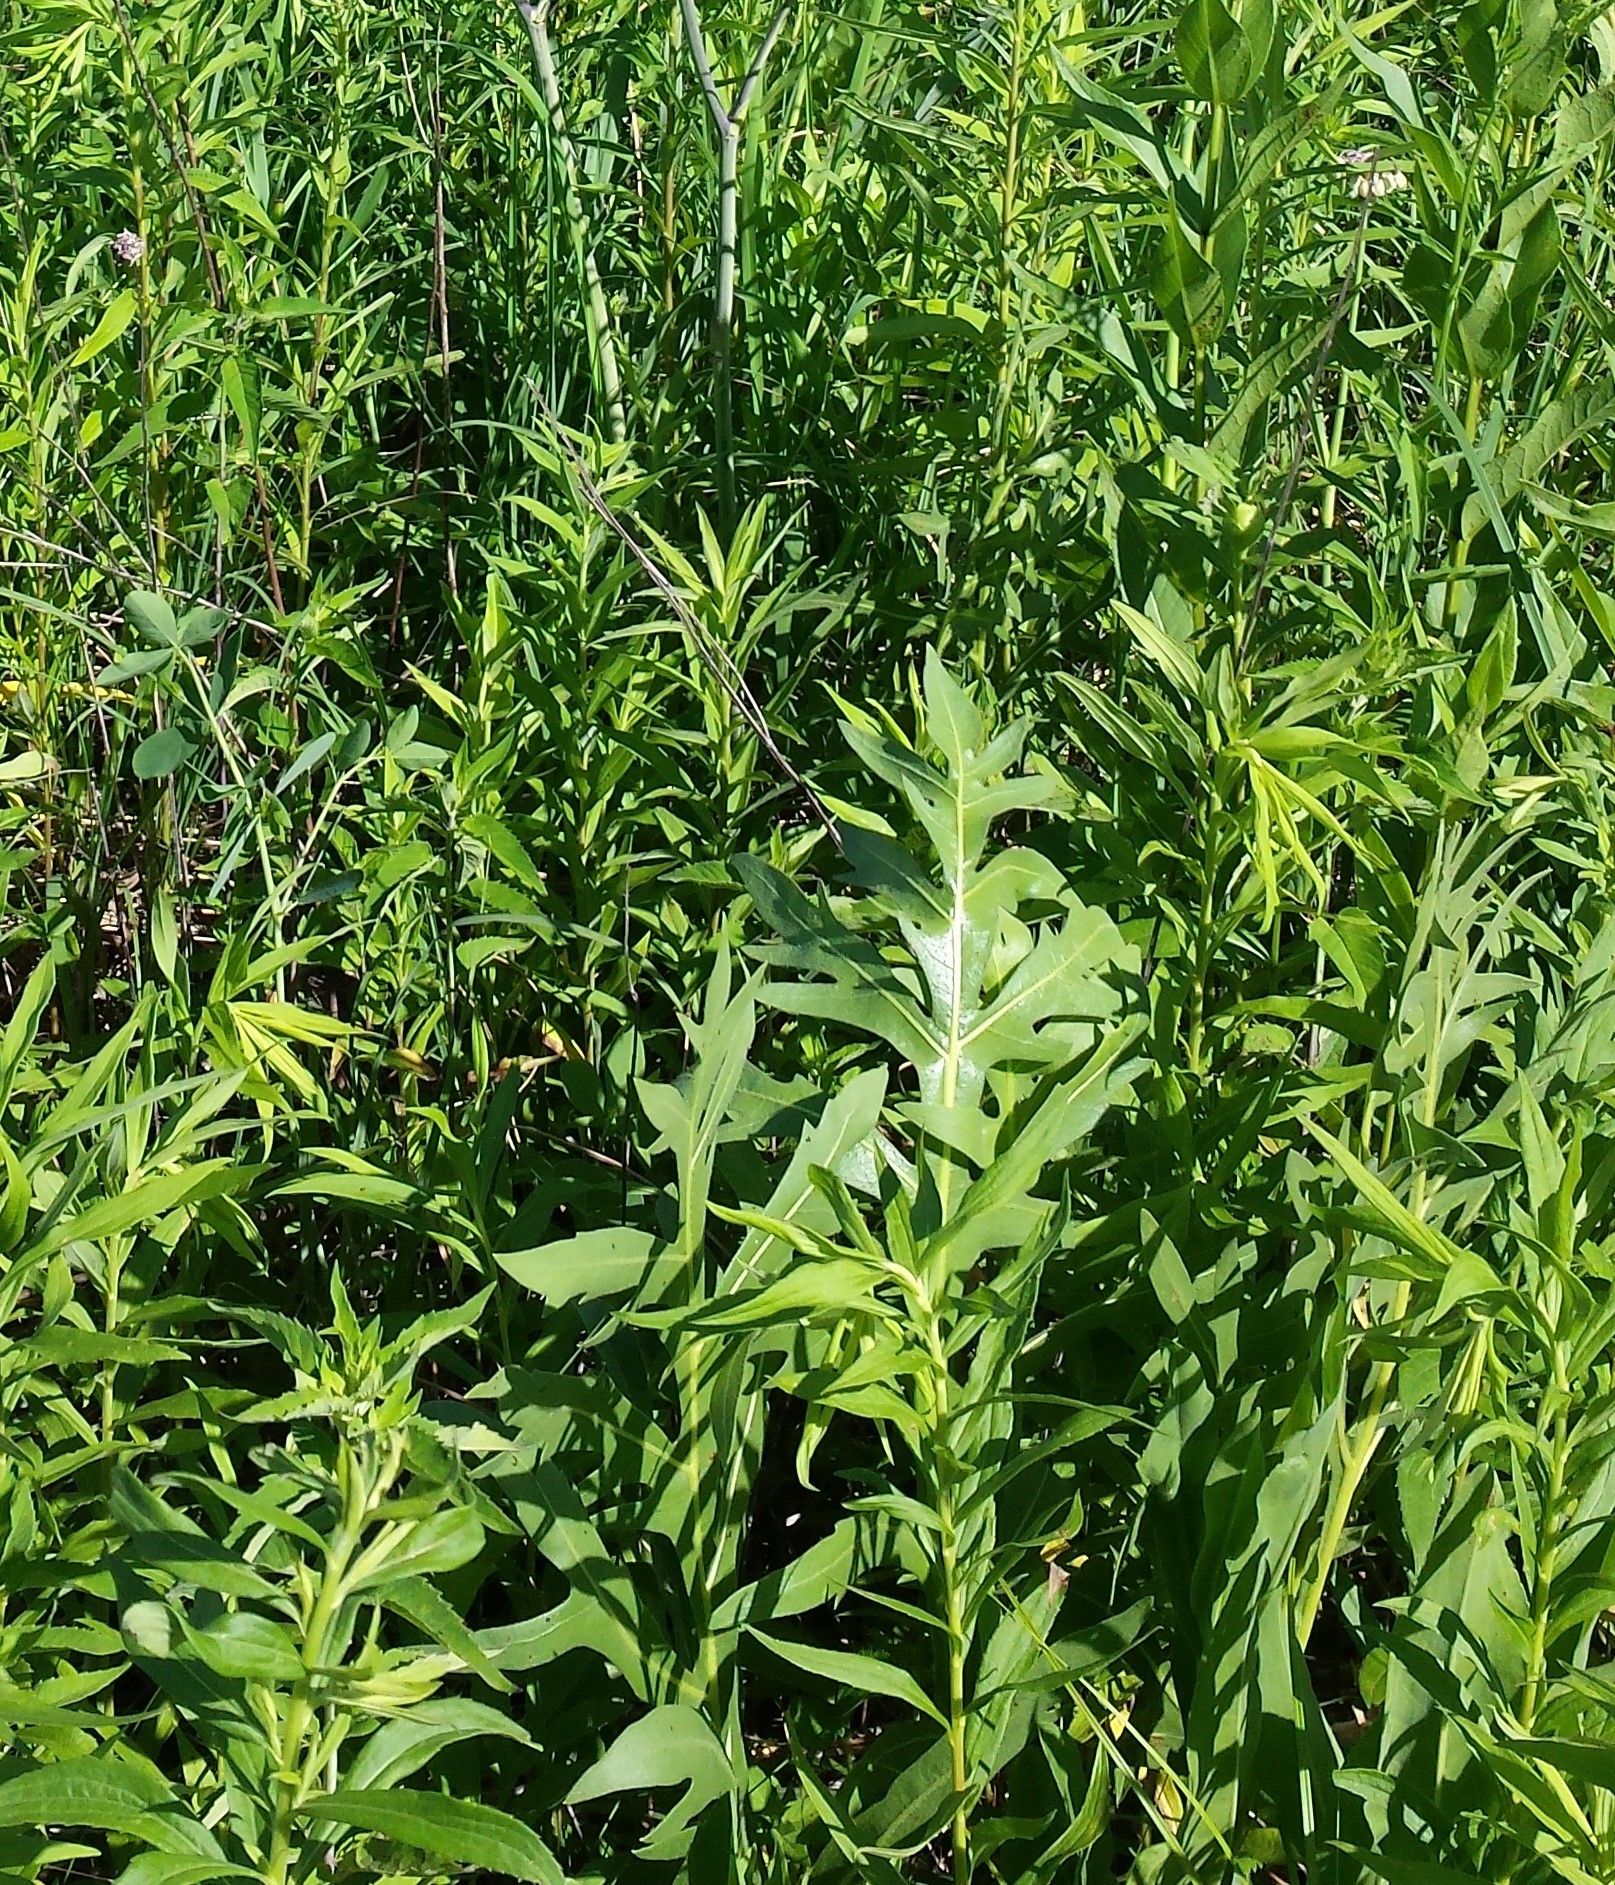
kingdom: Plantae
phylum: Tracheophyta
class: Magnoliopsida
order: Asterales
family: Asteraceae
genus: Silphium
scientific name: Silphium laciniatum
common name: Polarplant
